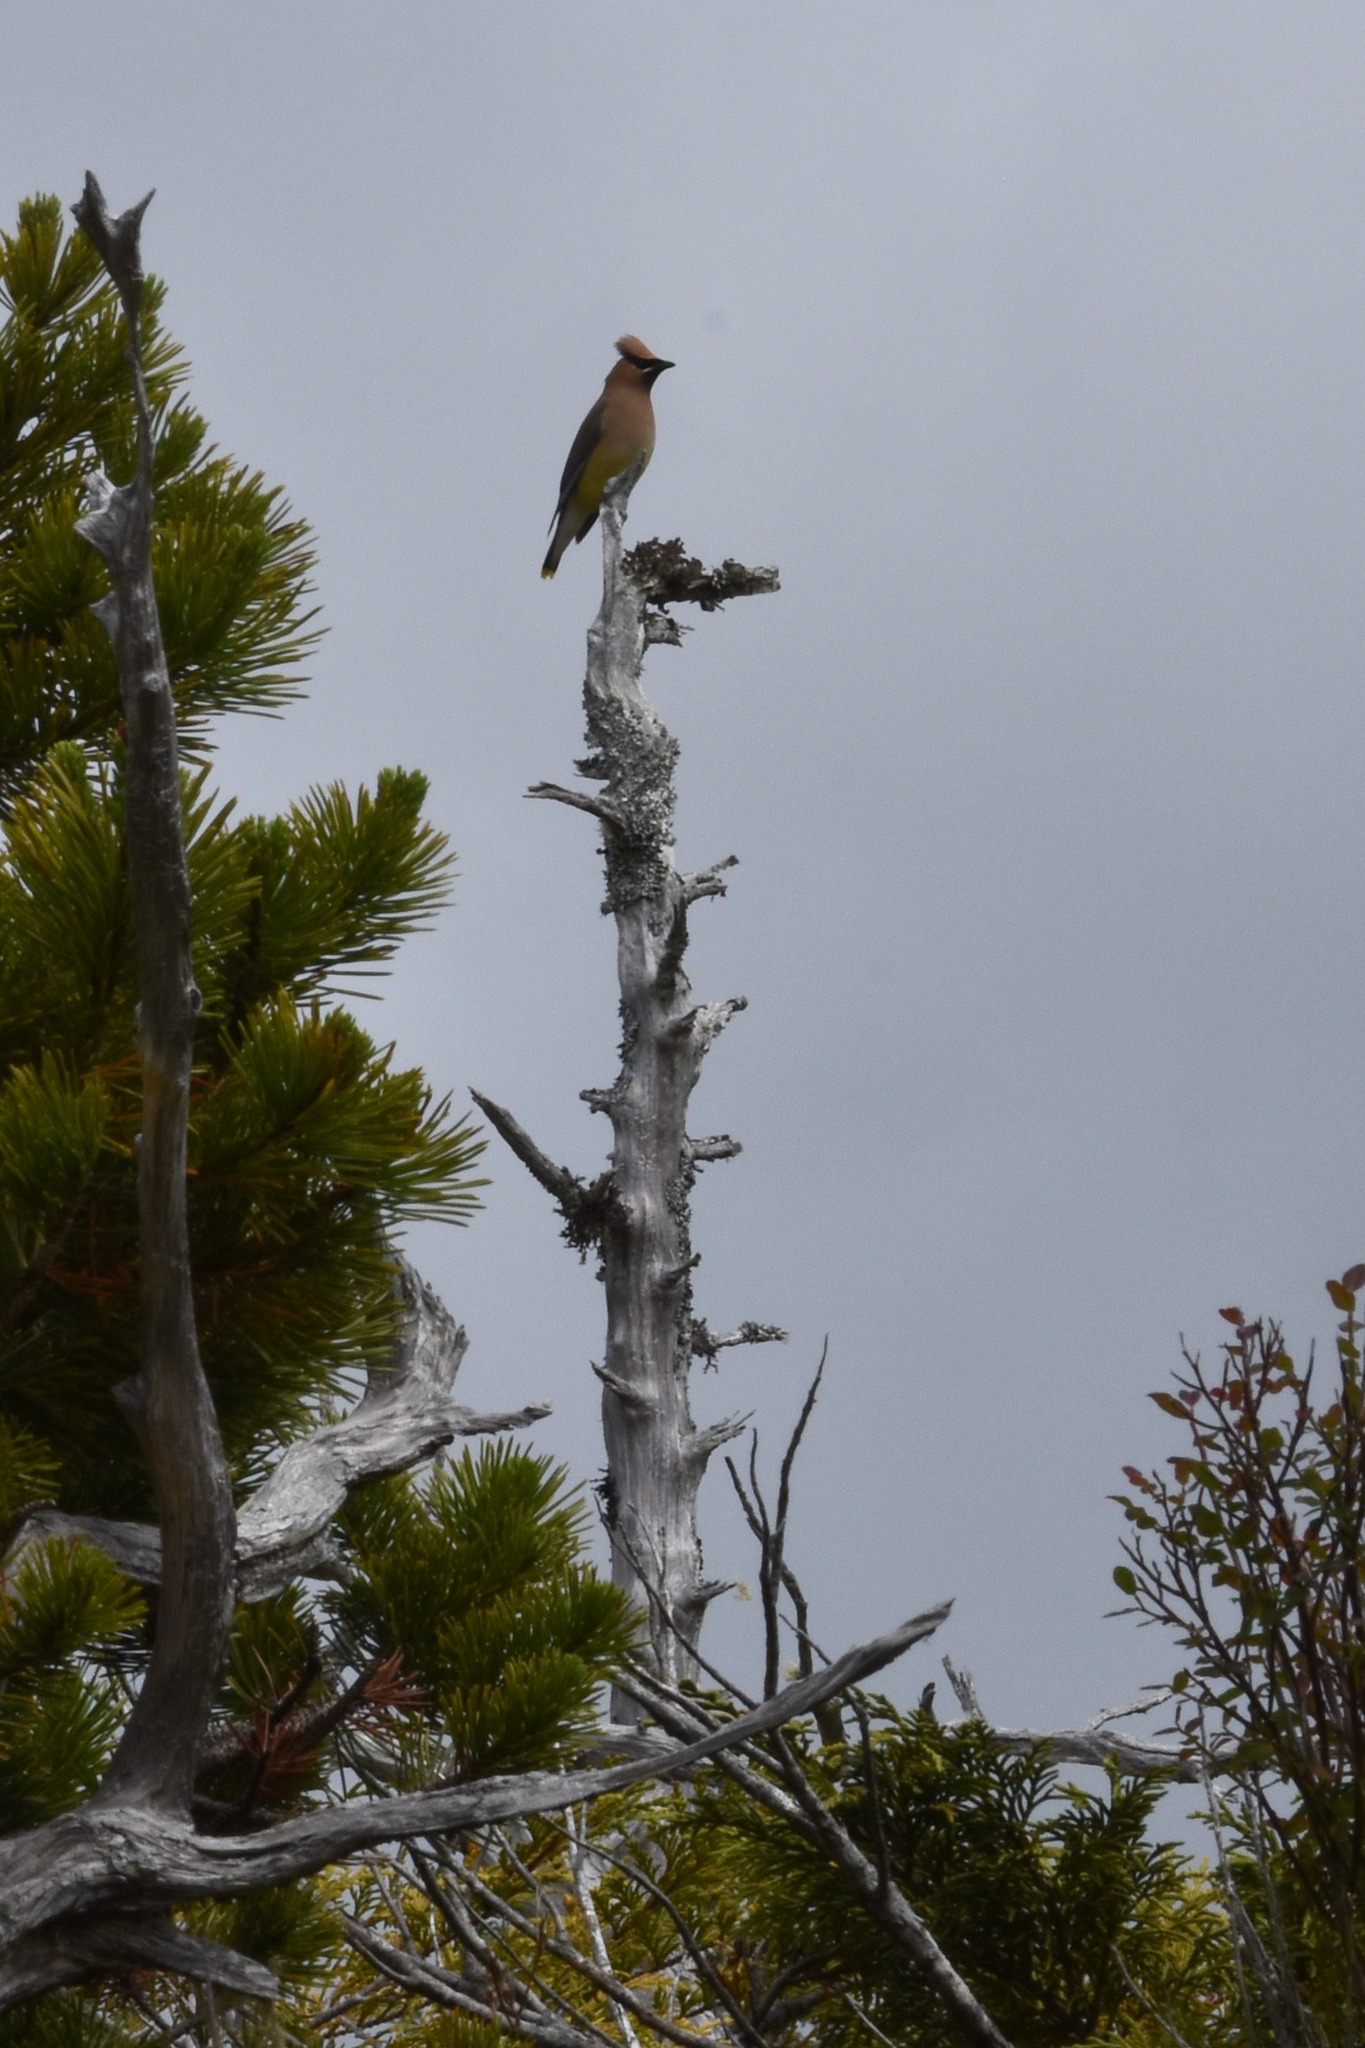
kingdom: Animalia
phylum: Chordata
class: Aves
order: Passeriformes
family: Bombycillidae
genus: Bombycilla
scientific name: Bombycilla cedrorum
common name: Cedar waxwing
